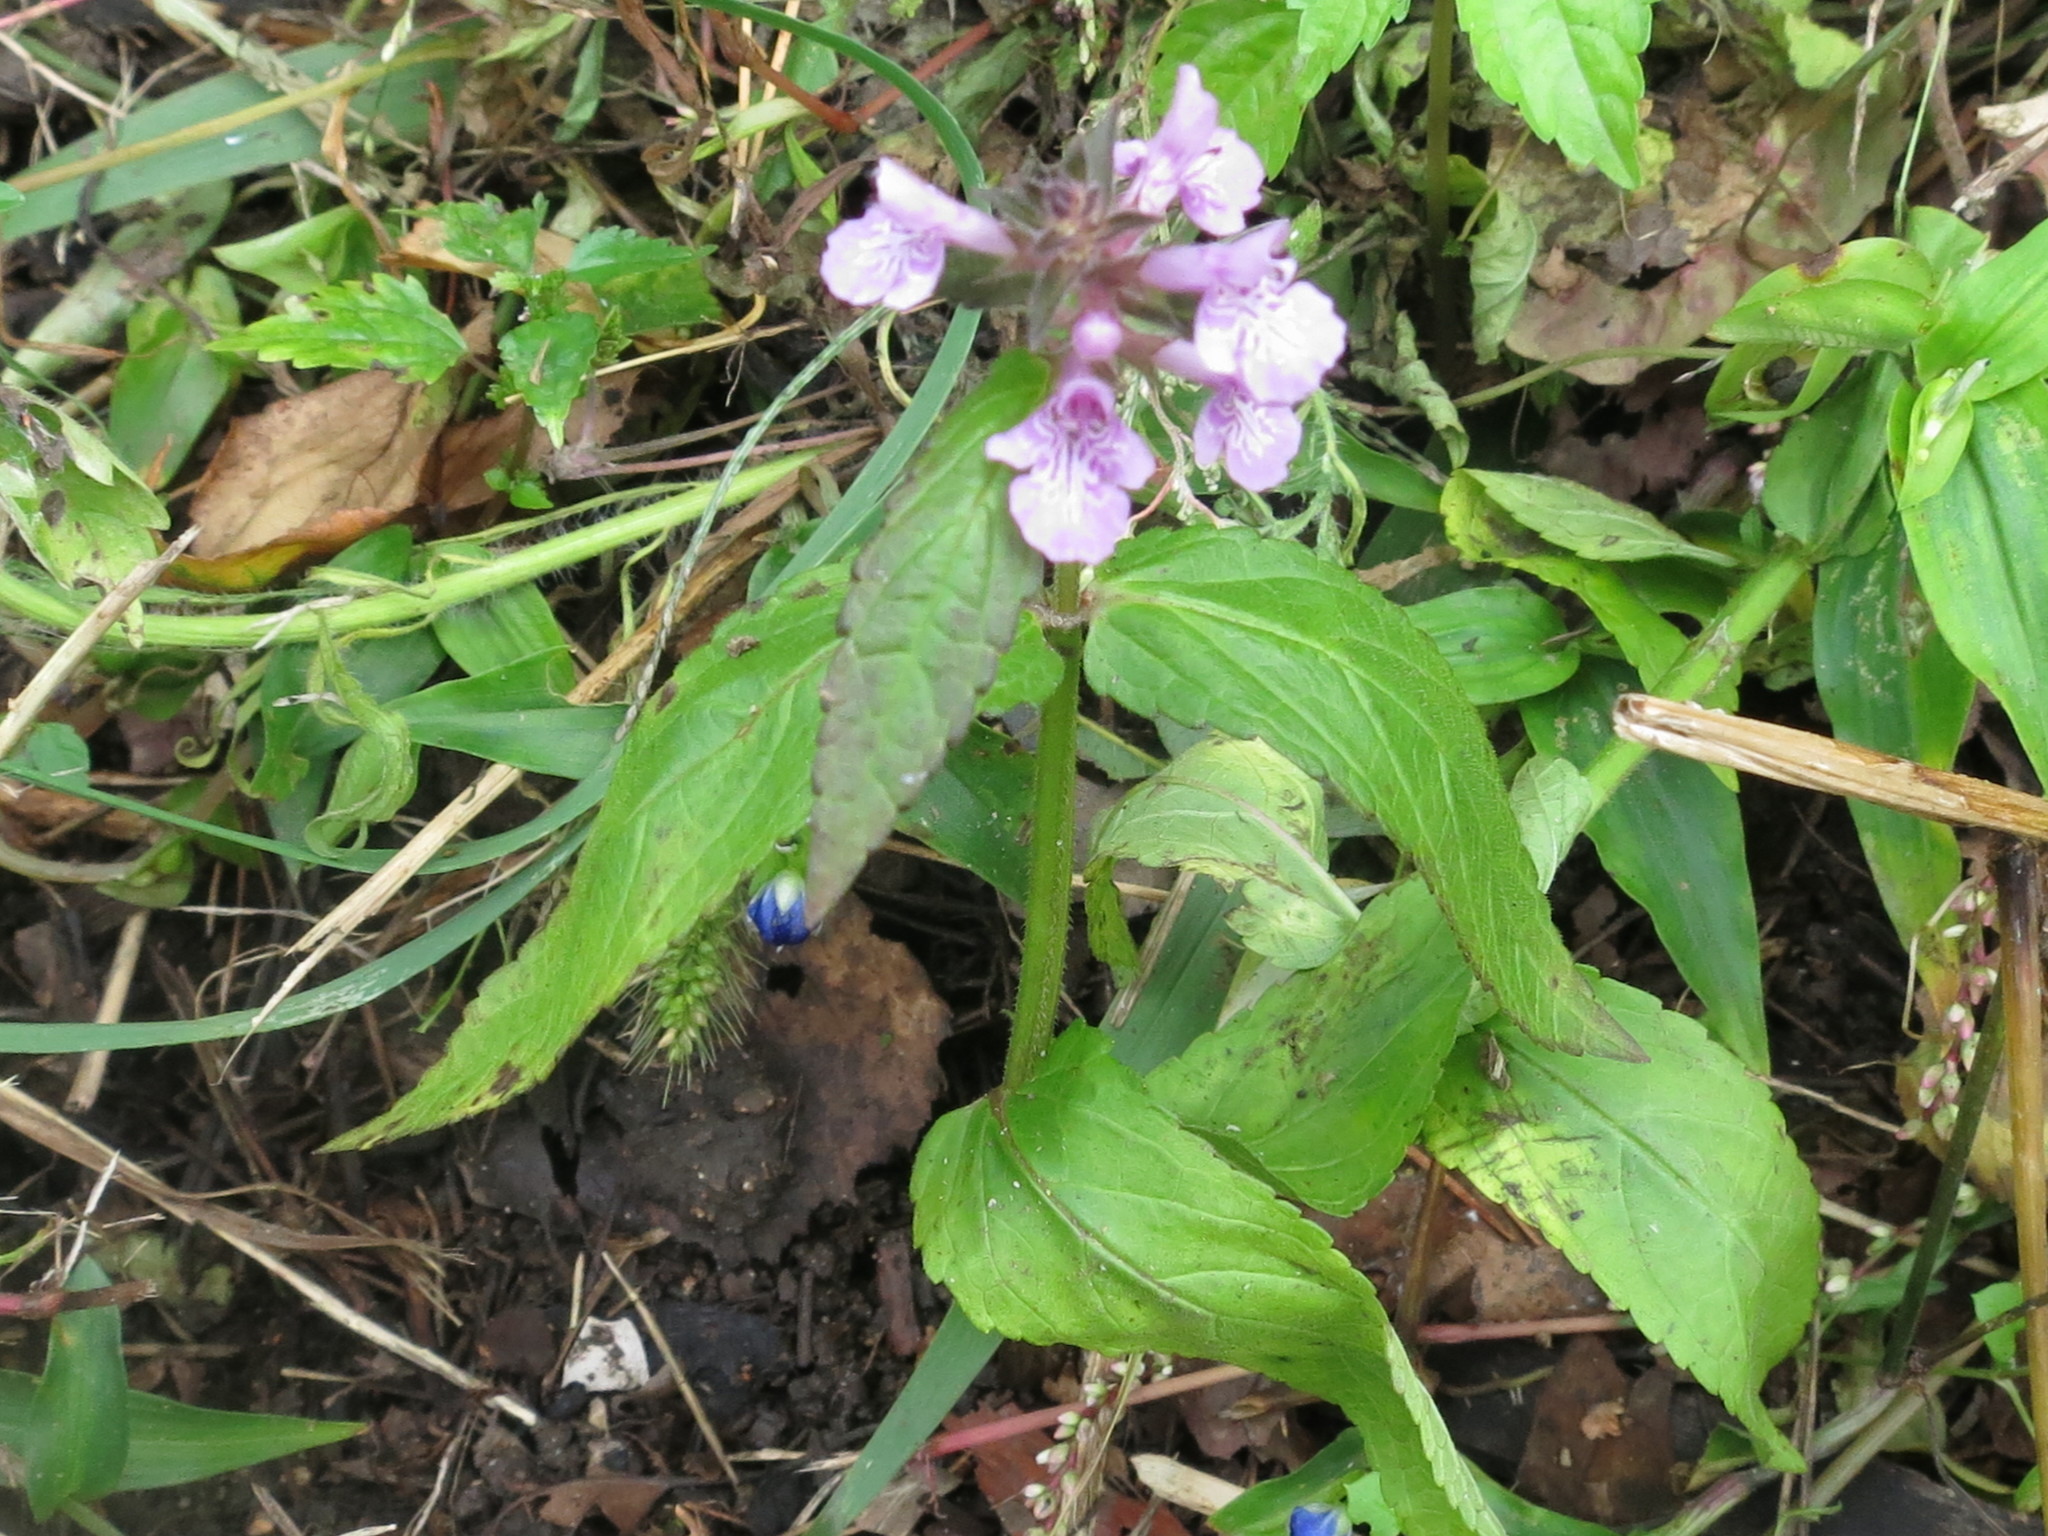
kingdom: Plantae
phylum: Tracheophyta
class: Magnoliopsida
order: Lamiales
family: Lamiaceae
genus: Stachys
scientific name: Stachys palustris
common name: Marsh woundwort
